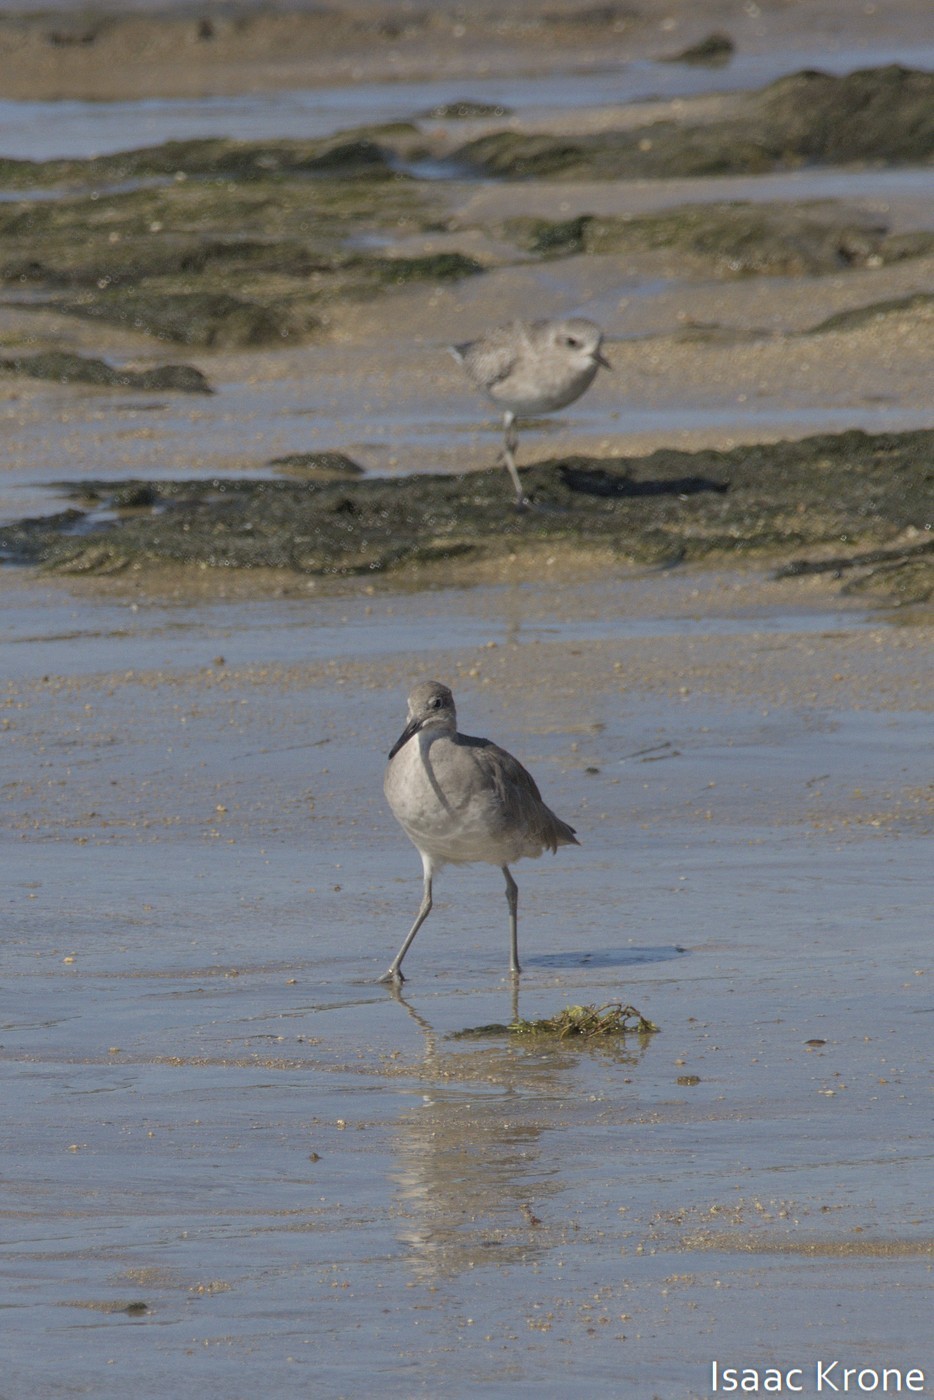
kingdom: Animalia
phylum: Chordata
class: Aves
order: Charadriiformes
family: Scolopacidae
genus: Tringa
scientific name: Tringa semipalmata
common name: Willet
